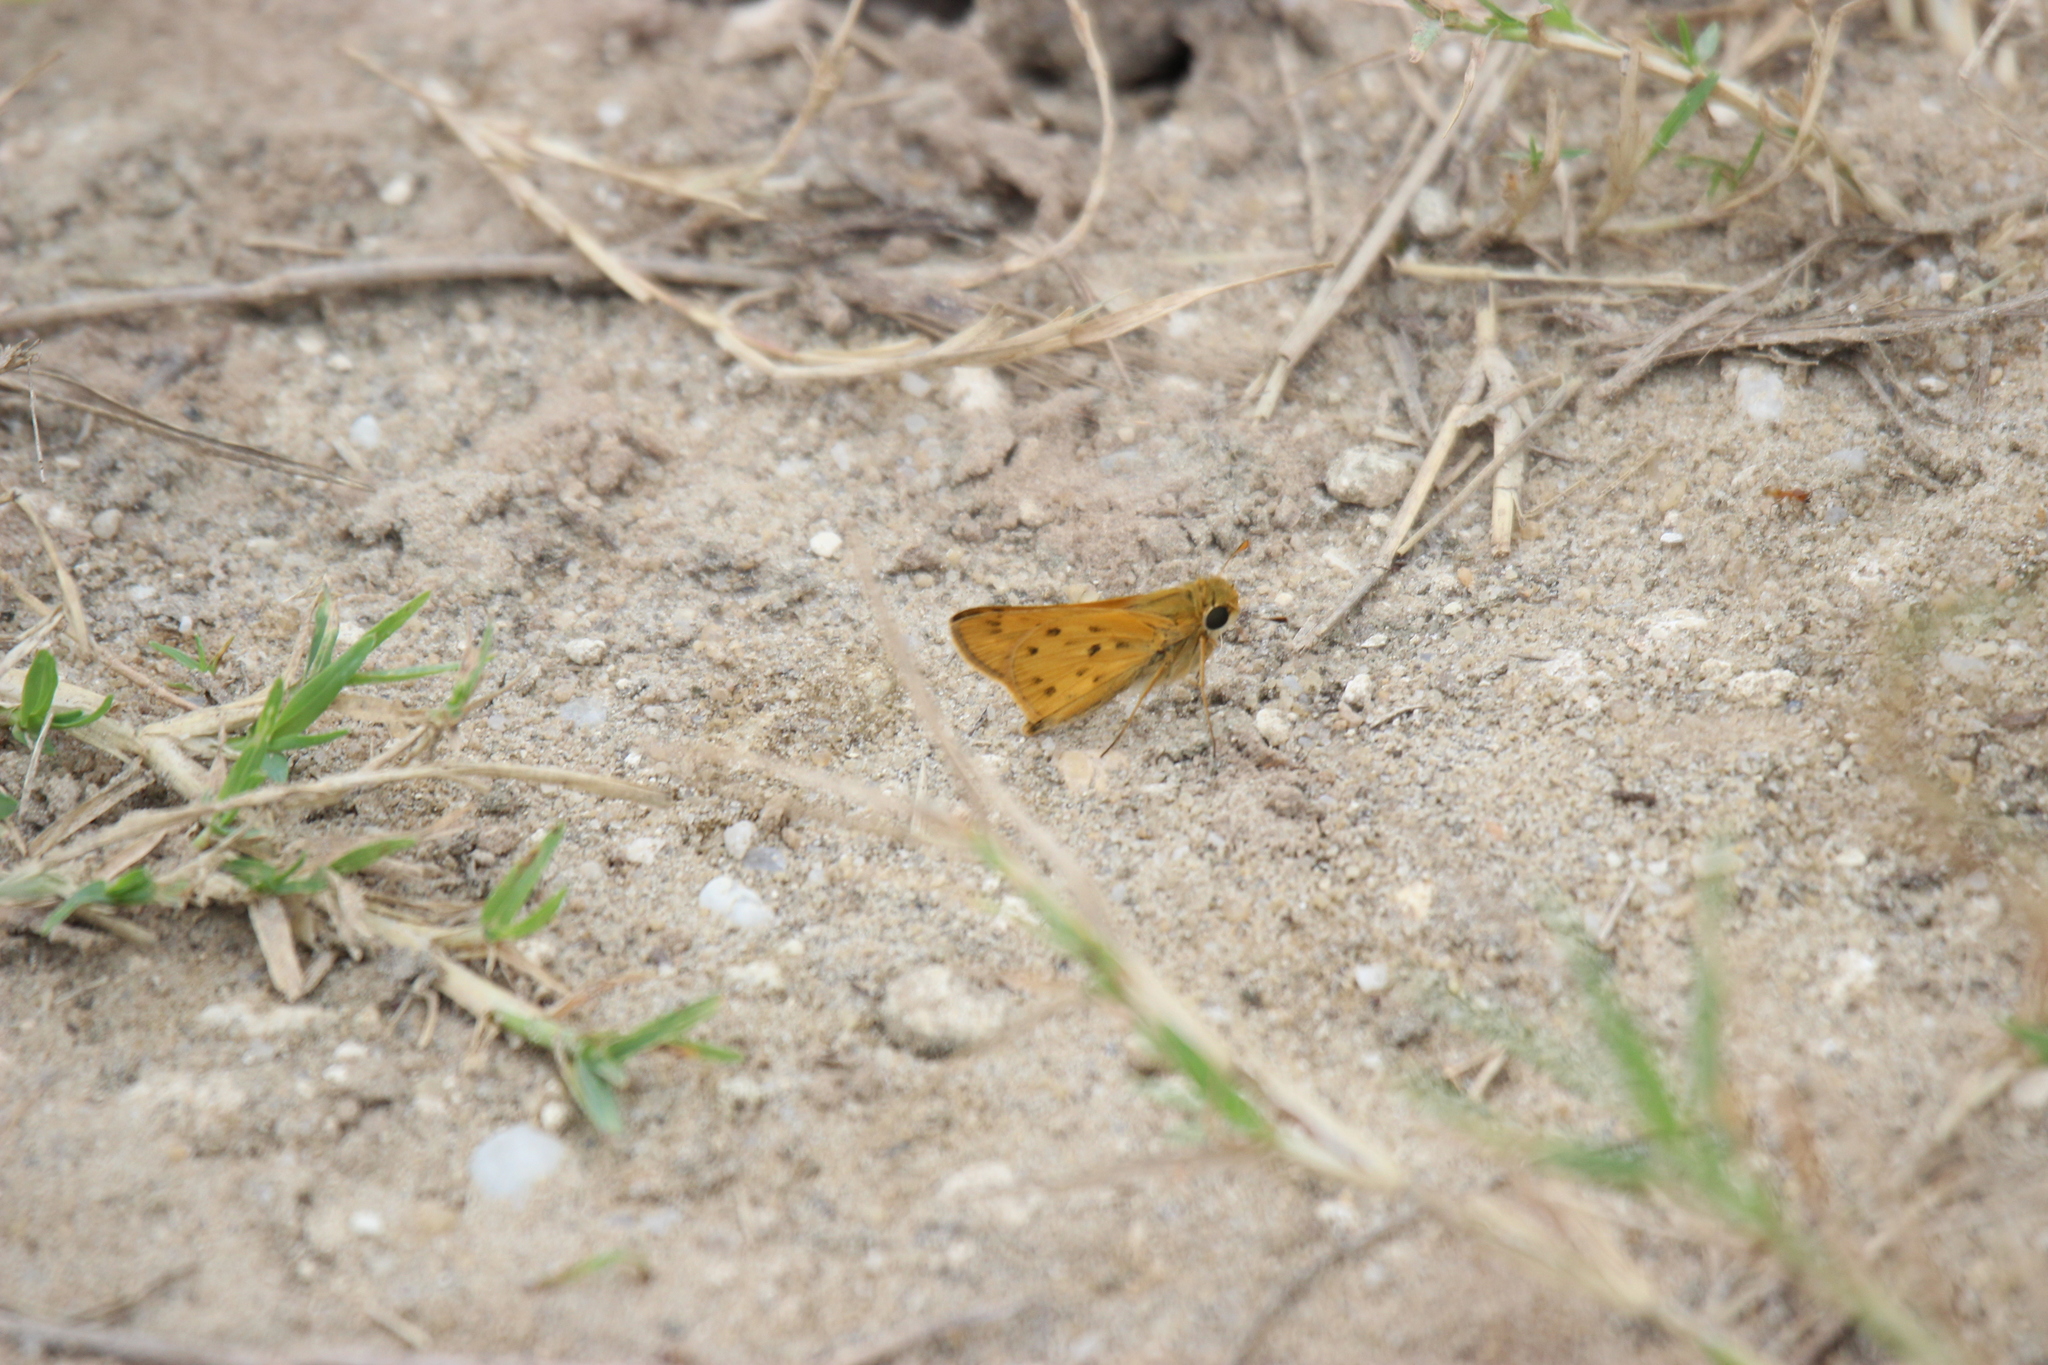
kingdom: Animalia
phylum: Arthropoda
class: Insecta
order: Lepidoptera
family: Hesperiidae
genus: Hylephila
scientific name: Hylephila phyleus
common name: Fiery skipper
